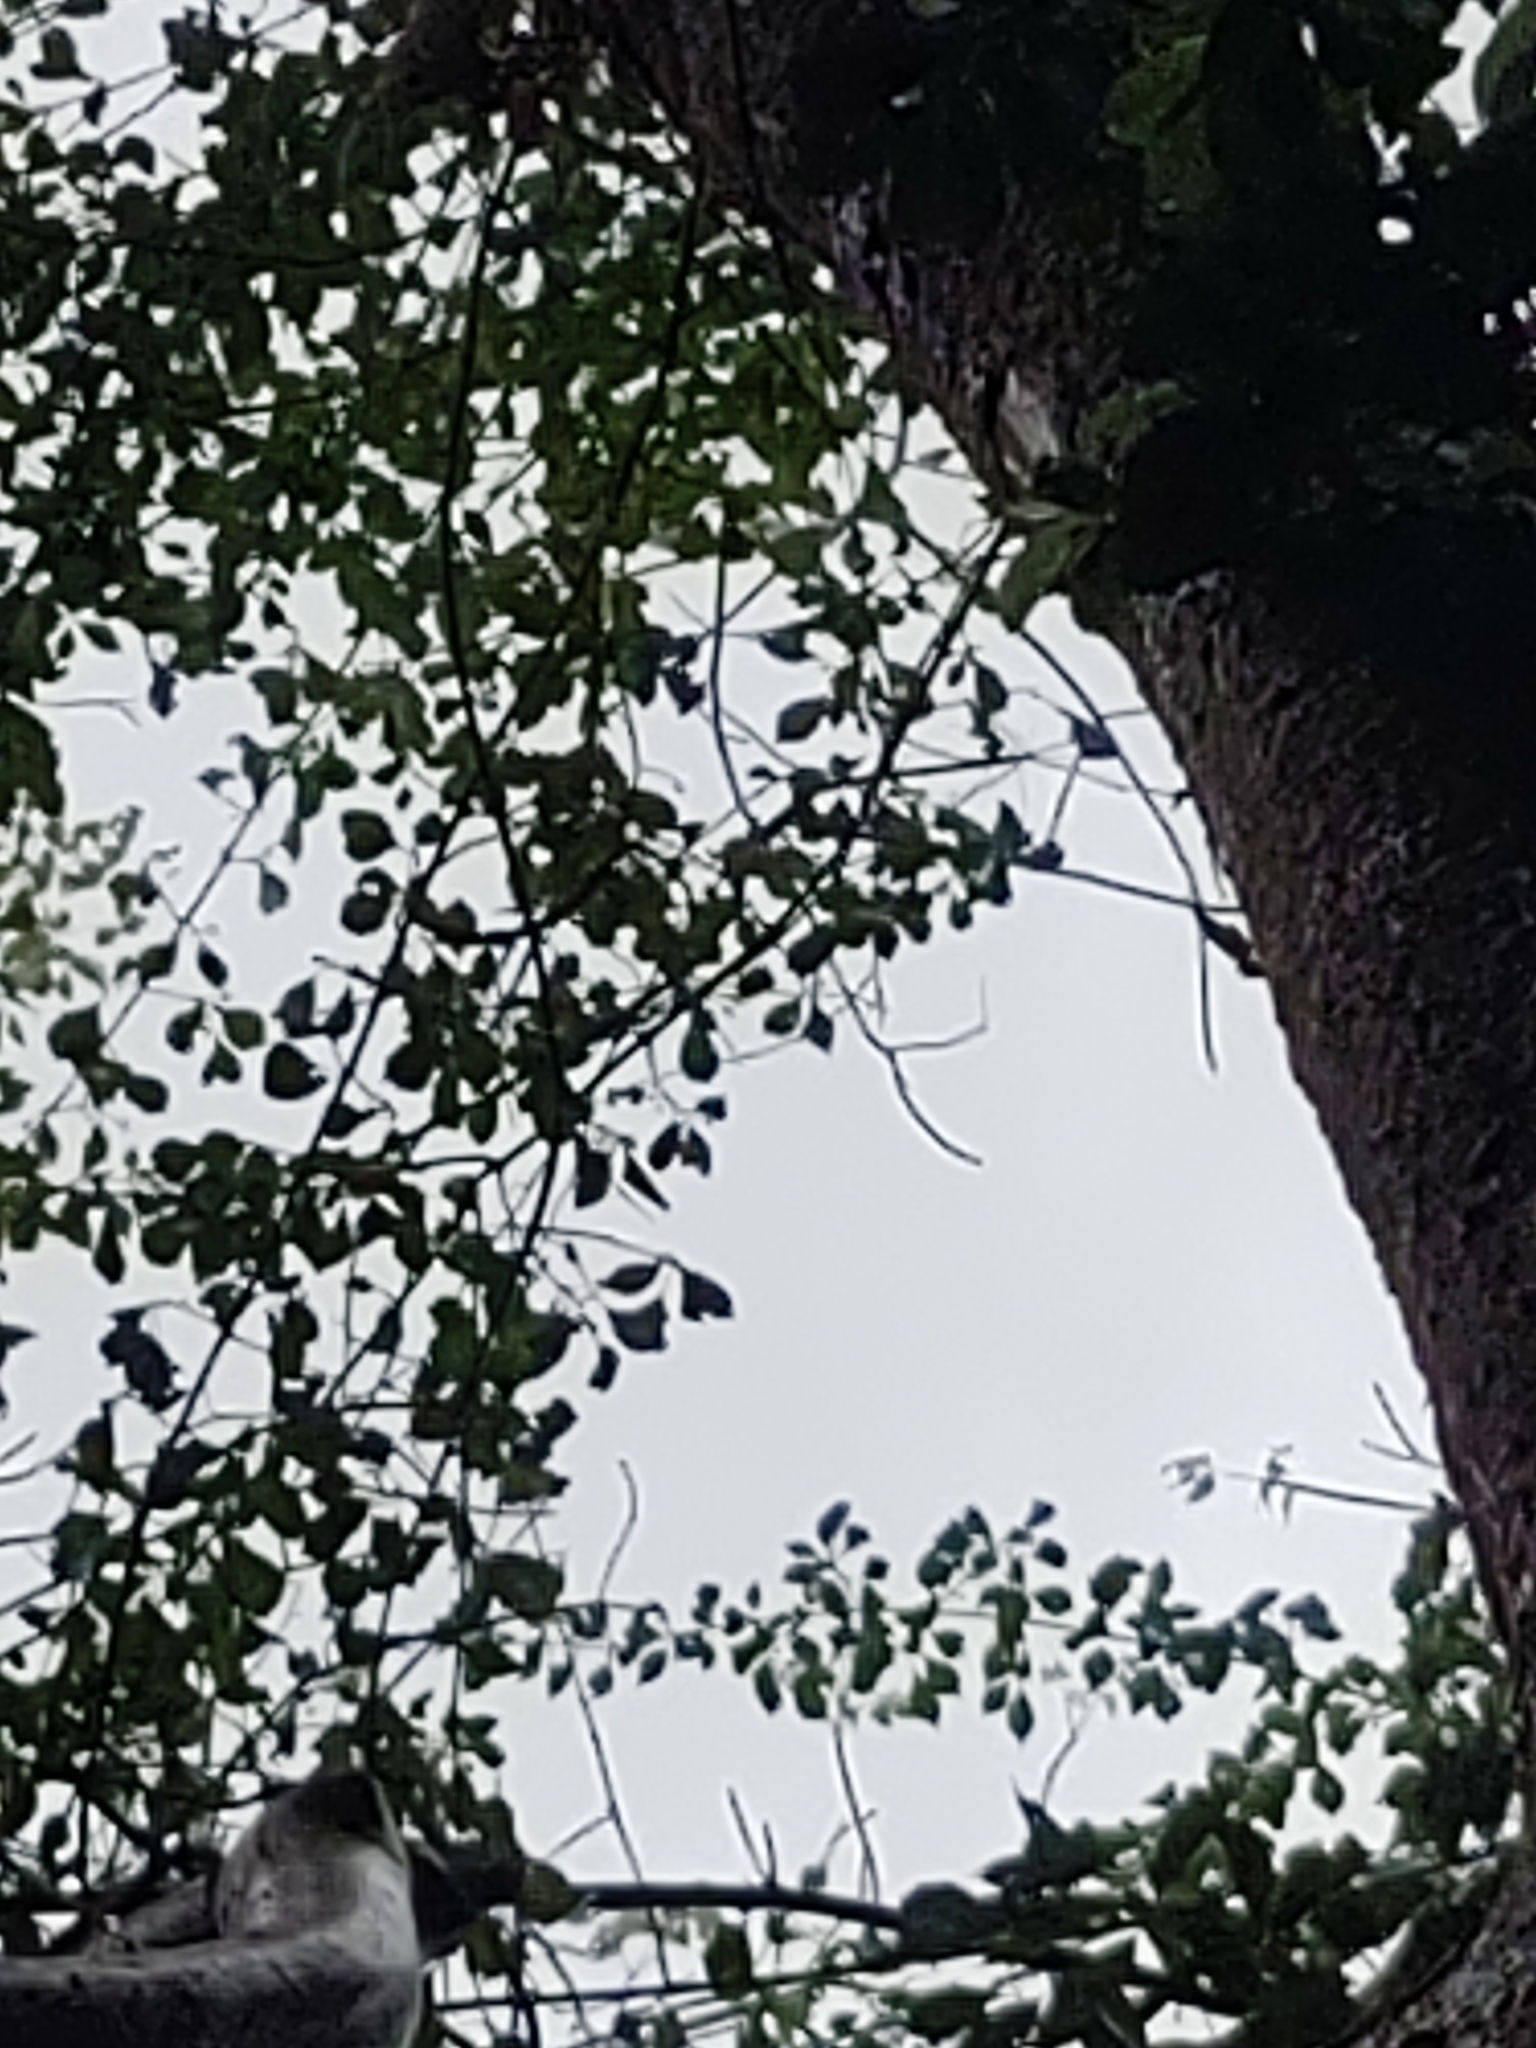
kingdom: Plantae
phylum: Tracheophyta
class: Magnoliopsida
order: Sapindales
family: Burseraceae
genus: Bursera
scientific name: Bursera simaruba
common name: Turpentine tree
